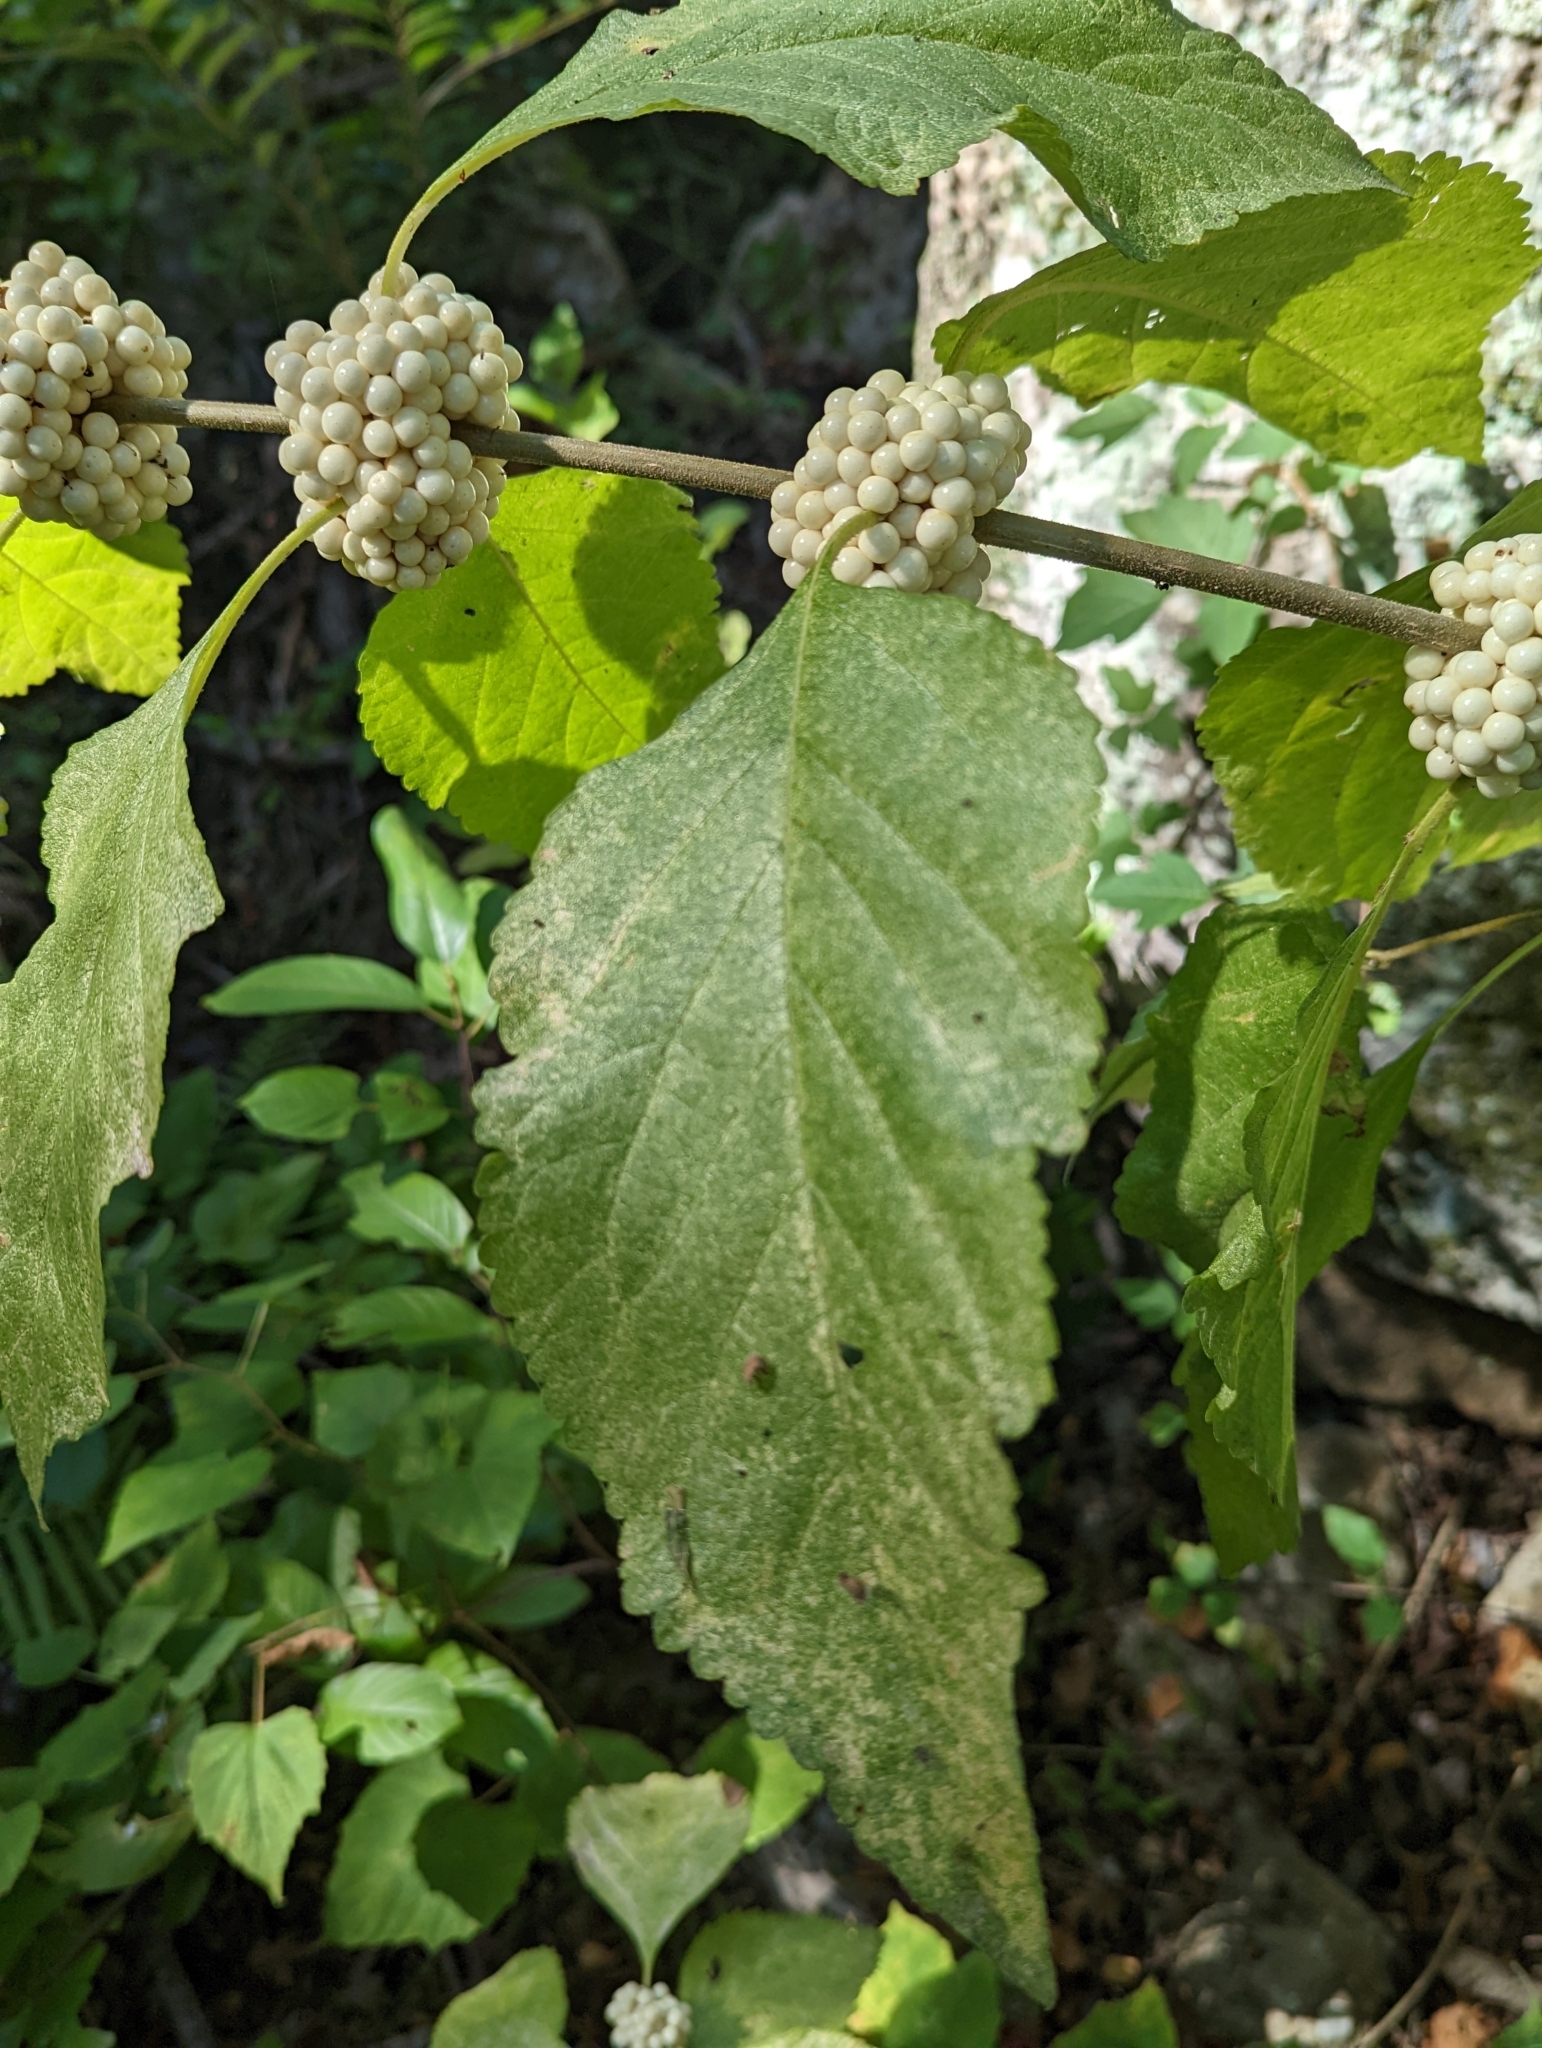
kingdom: Plantae
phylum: Tracheophyta
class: Magnoliopsida
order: Lamiales
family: Lamiaceae
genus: Callicarpa
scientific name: Callicarpa americana
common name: American beautyberry
